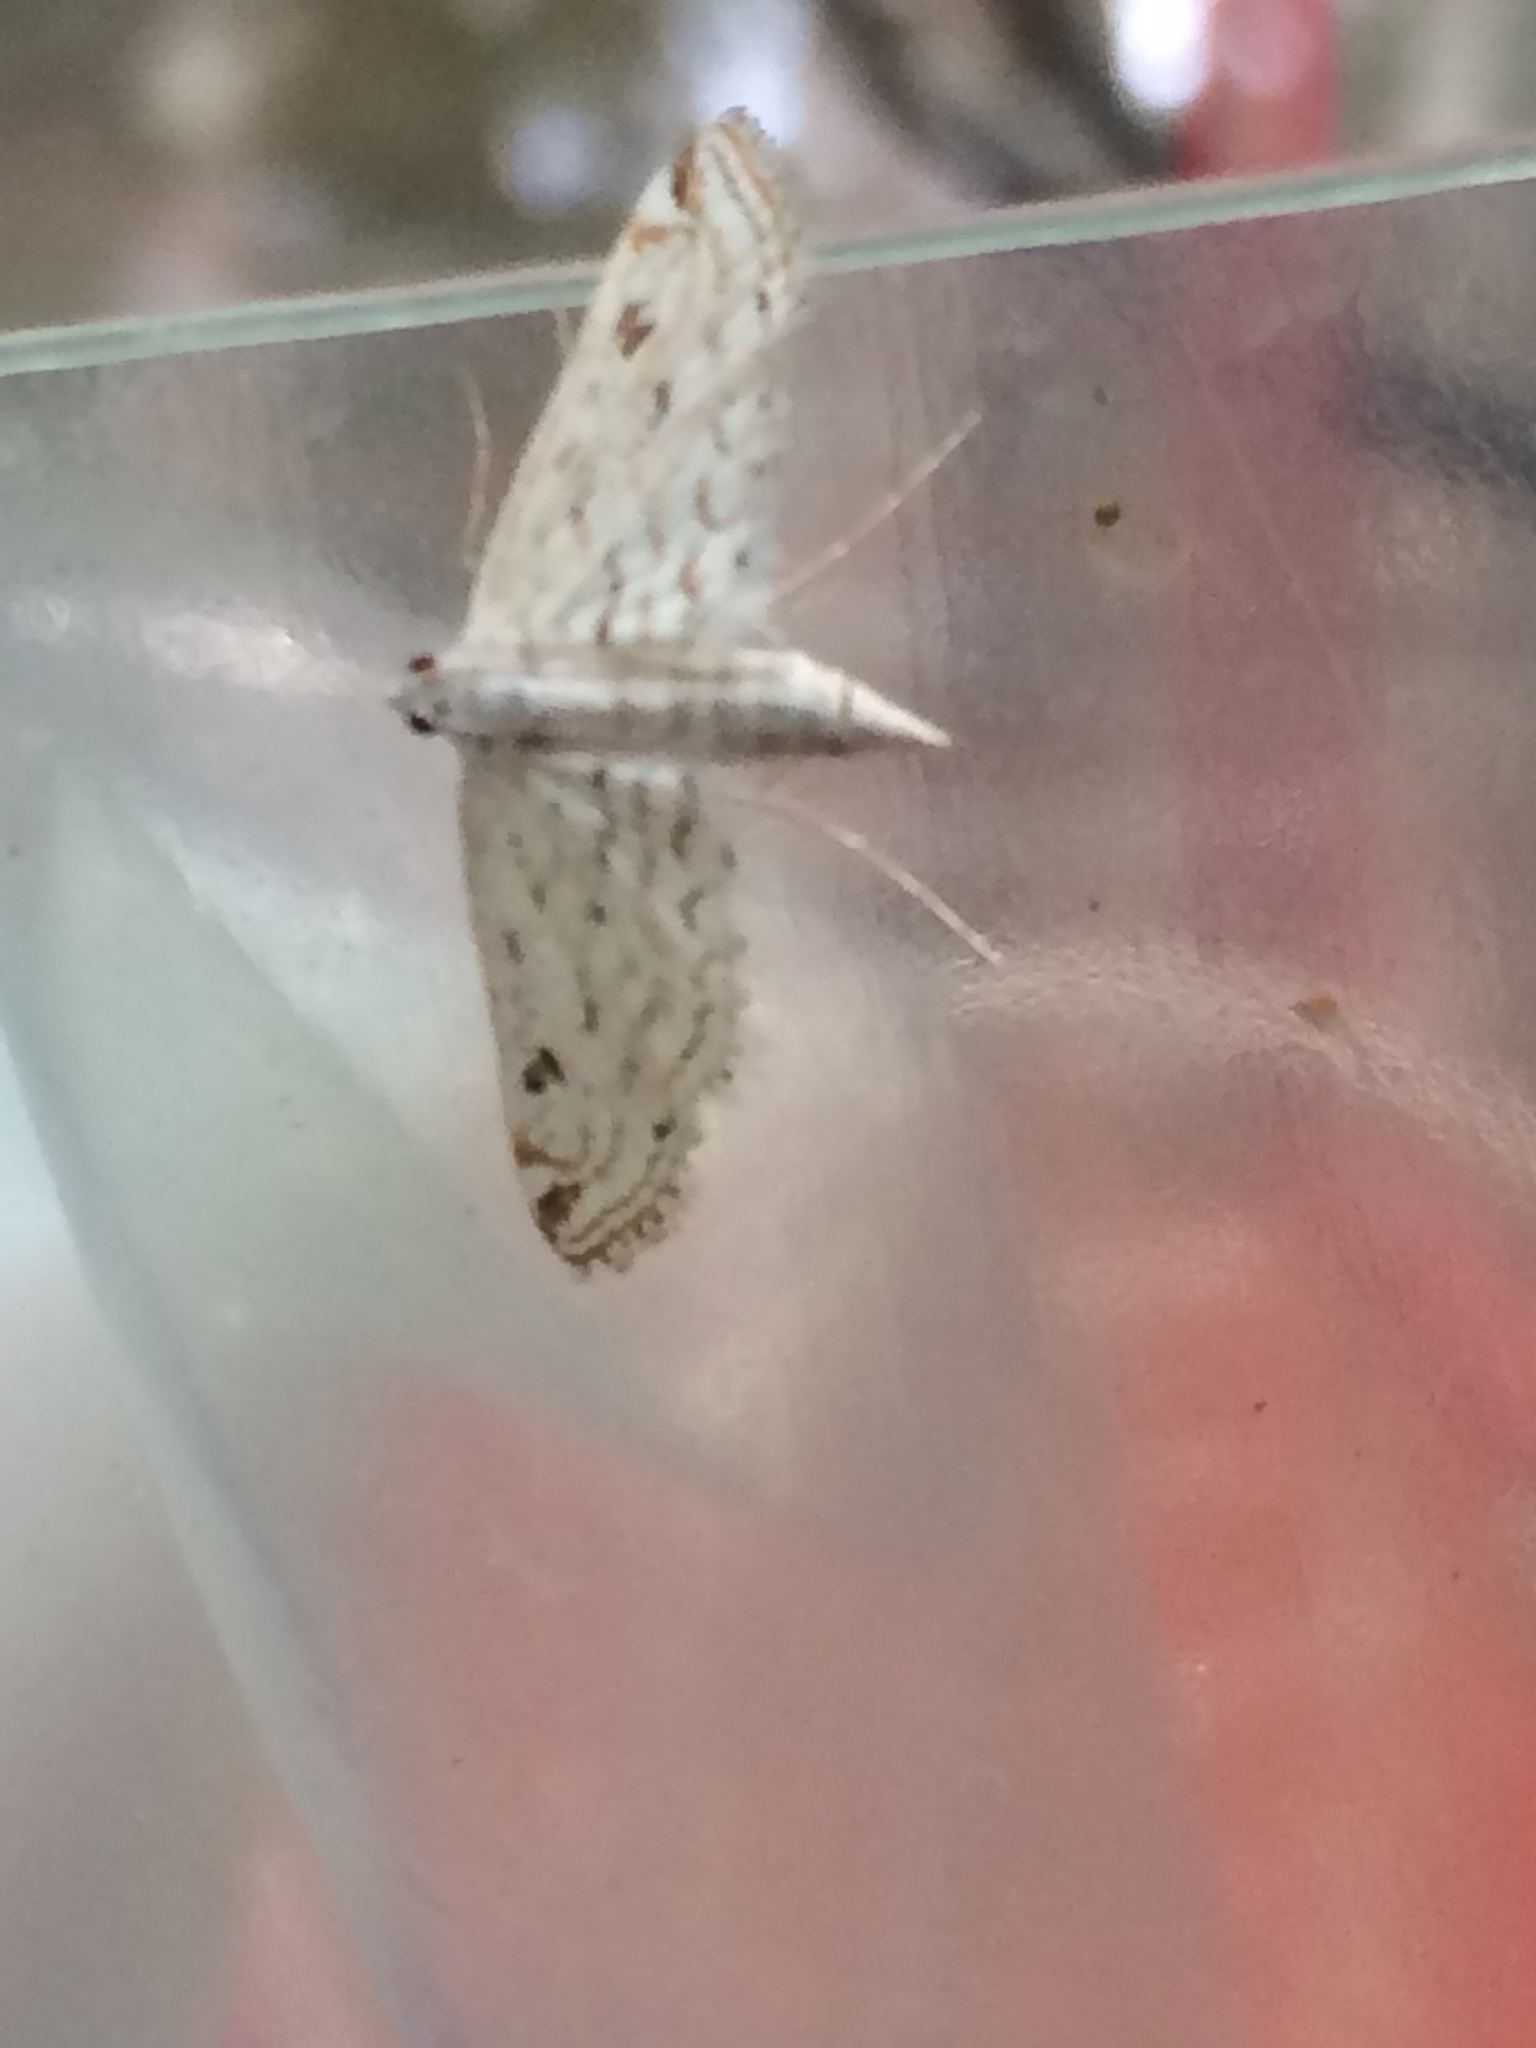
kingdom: Animalia
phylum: Arthropoda
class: Insecta
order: Lepidoptera
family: Crambidae
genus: Parapoynx
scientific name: Parapoynx allionealis
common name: Bladderwort casemaker
